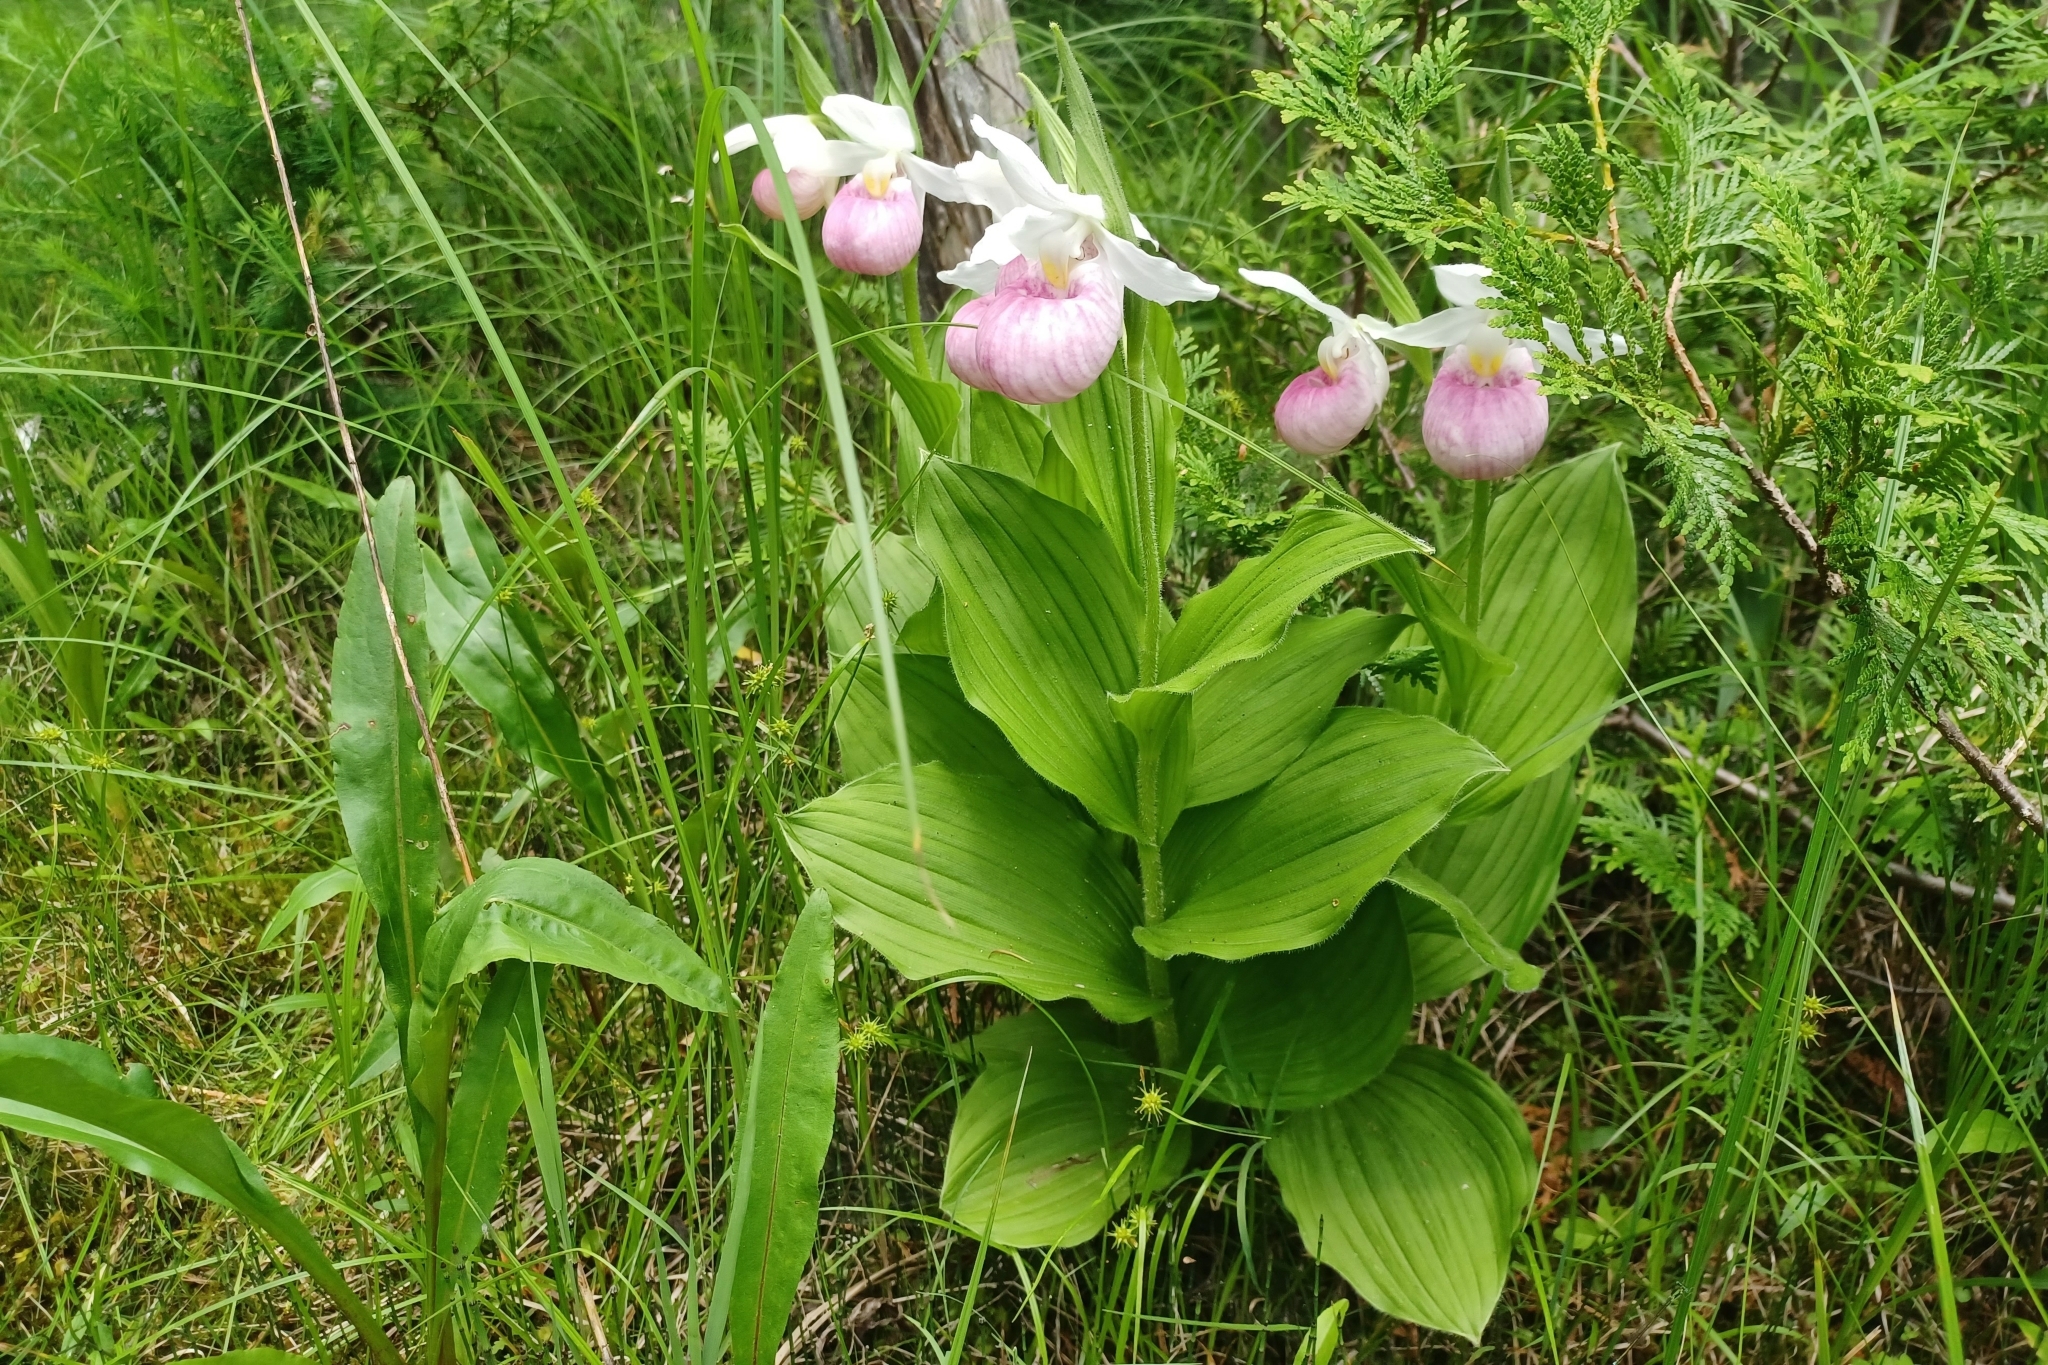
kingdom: Plantae
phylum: Tracheophyta
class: Liliopsida
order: Asparagales
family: Orchidaceae
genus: Cypripedium
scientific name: Cypripedium reginae
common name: Queen lady's-slipper
